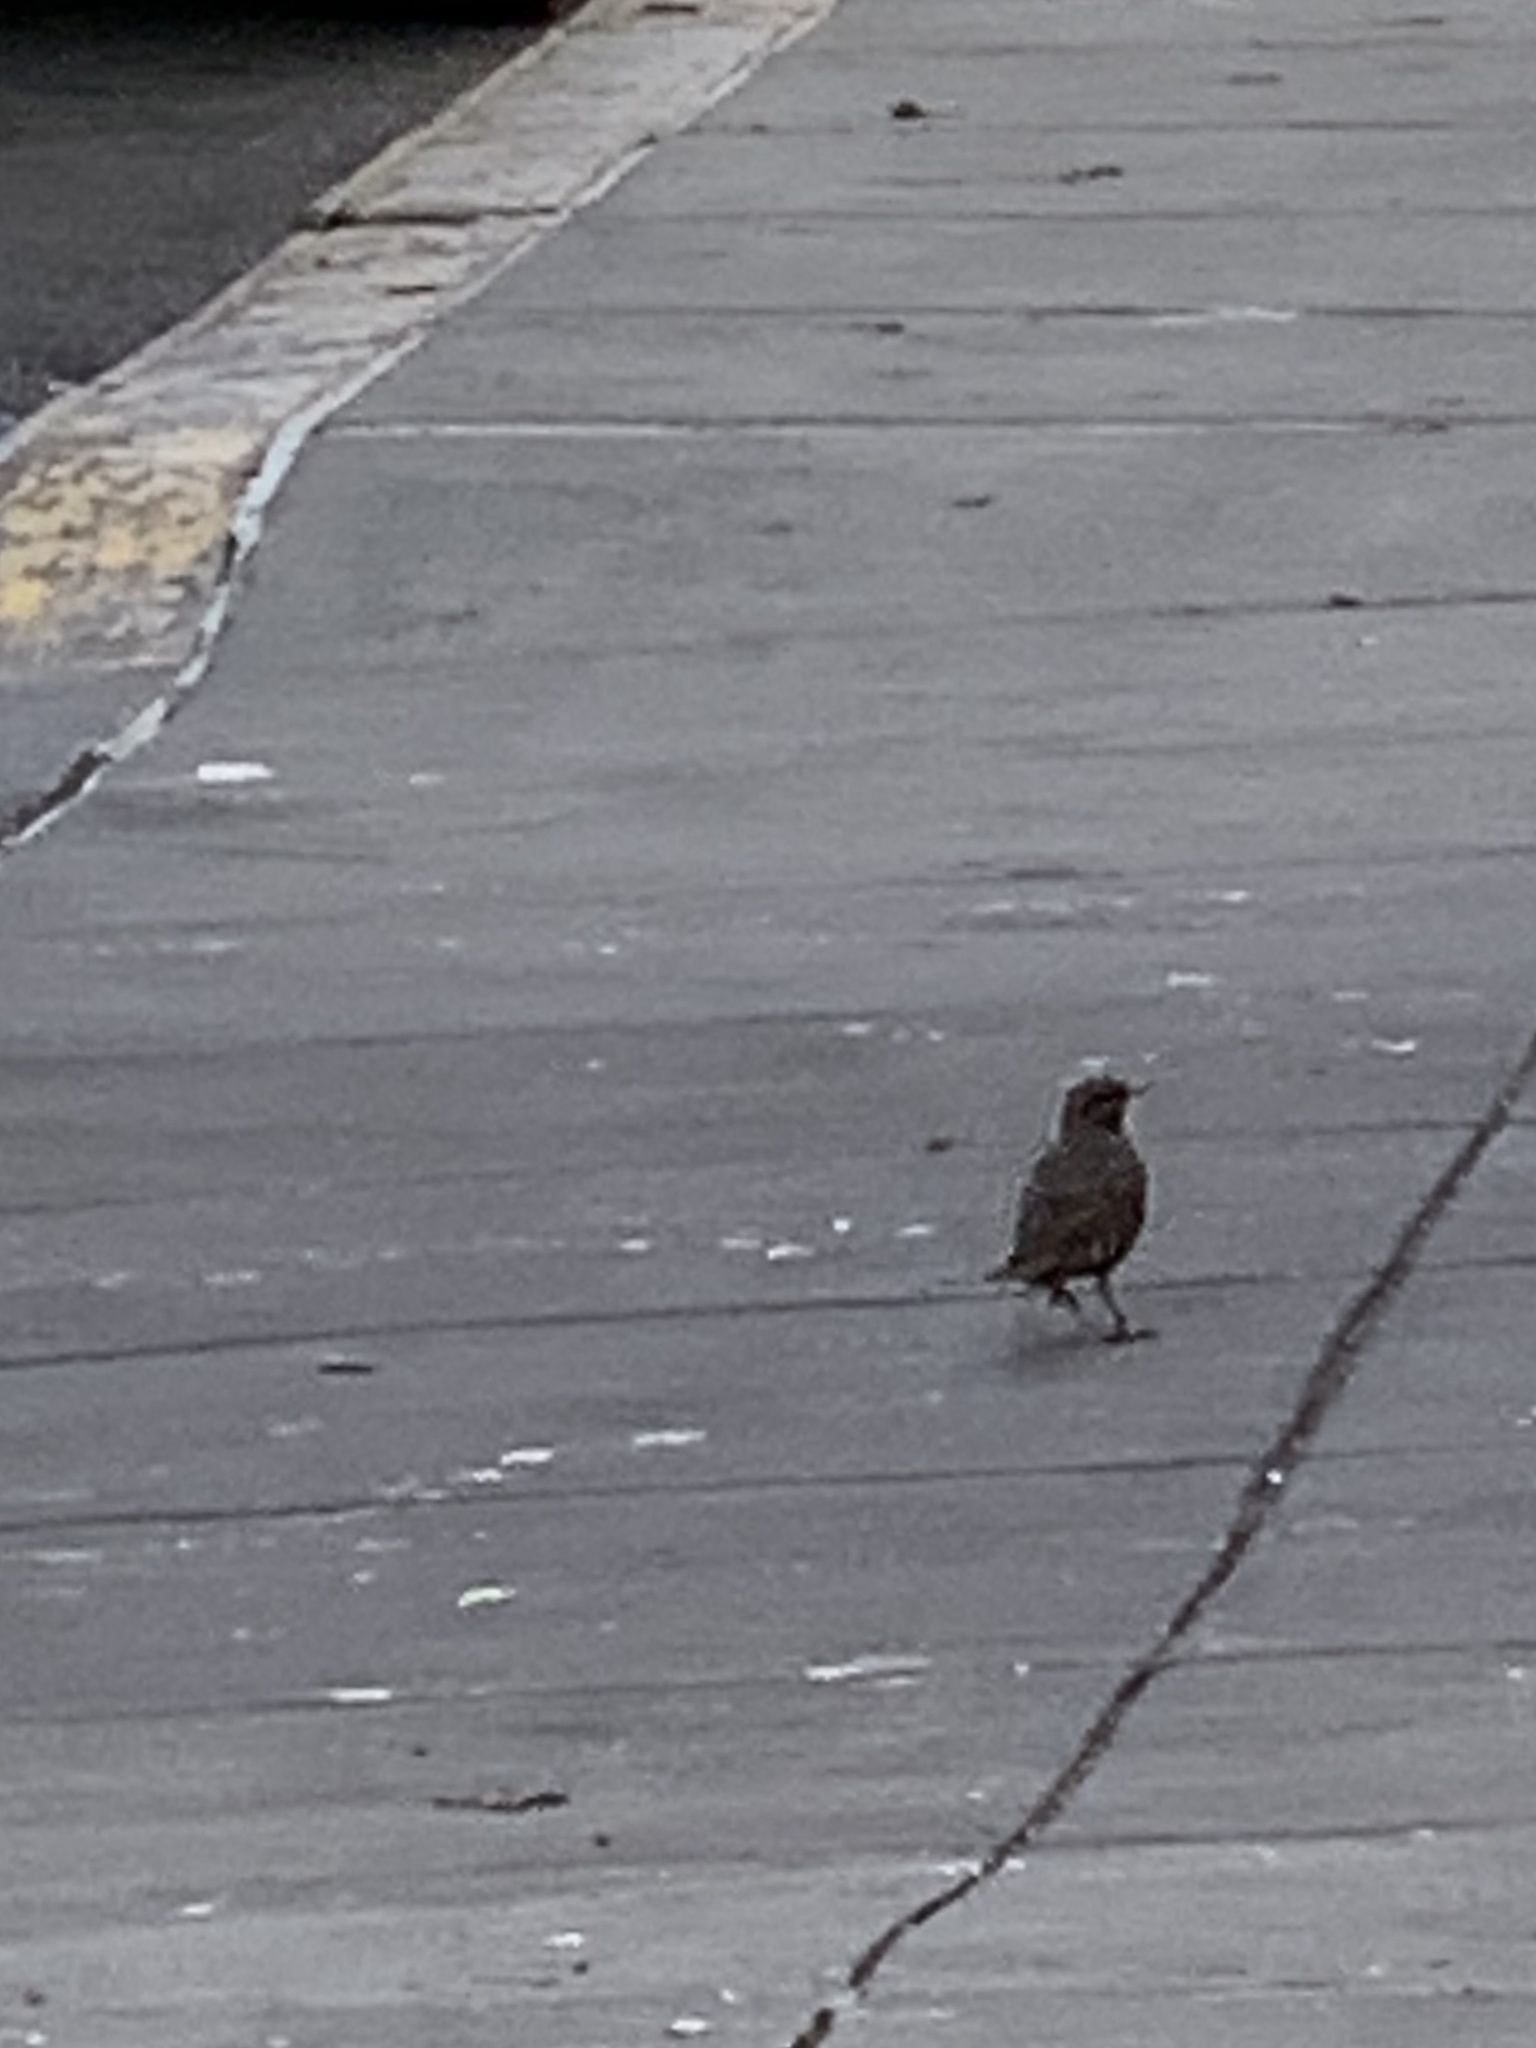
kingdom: Animalia
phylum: Chordata
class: Aves
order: Passeriformes
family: Sturnidae
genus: Sturnus
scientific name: Sturnus vulgaris
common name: Common starling
